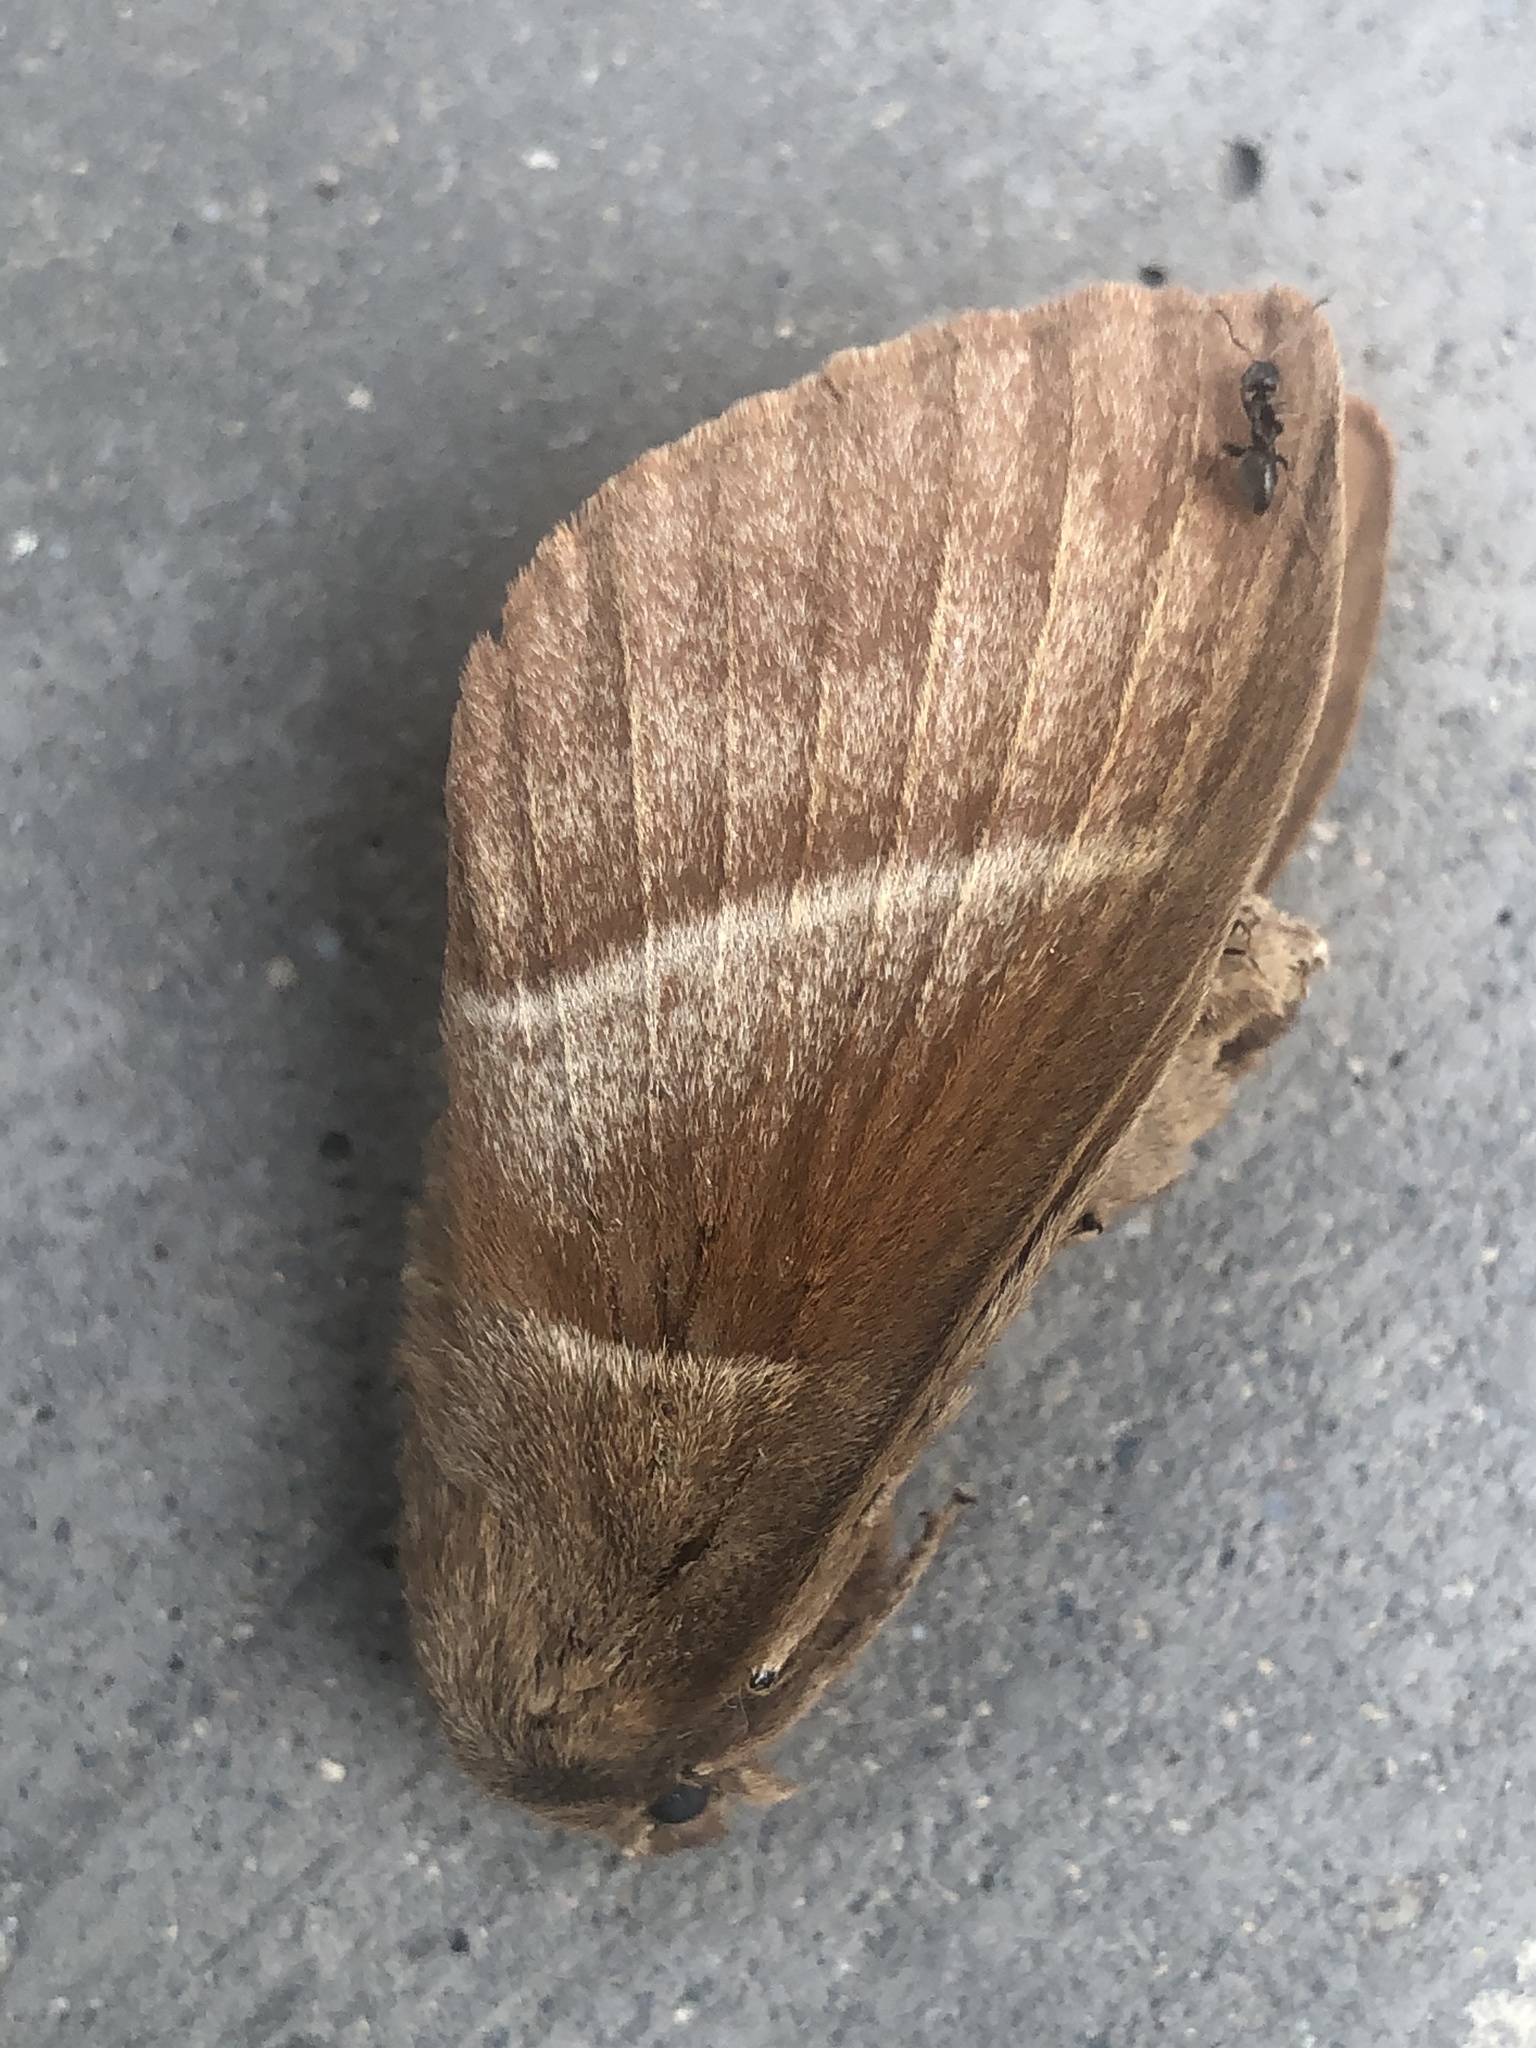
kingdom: Animalia
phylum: Arthropoda
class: Insecta
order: Lepidoptera
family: Lasiocampidae
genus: Macrothylacia
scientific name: Macrothylacia rubi
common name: Fox moth
